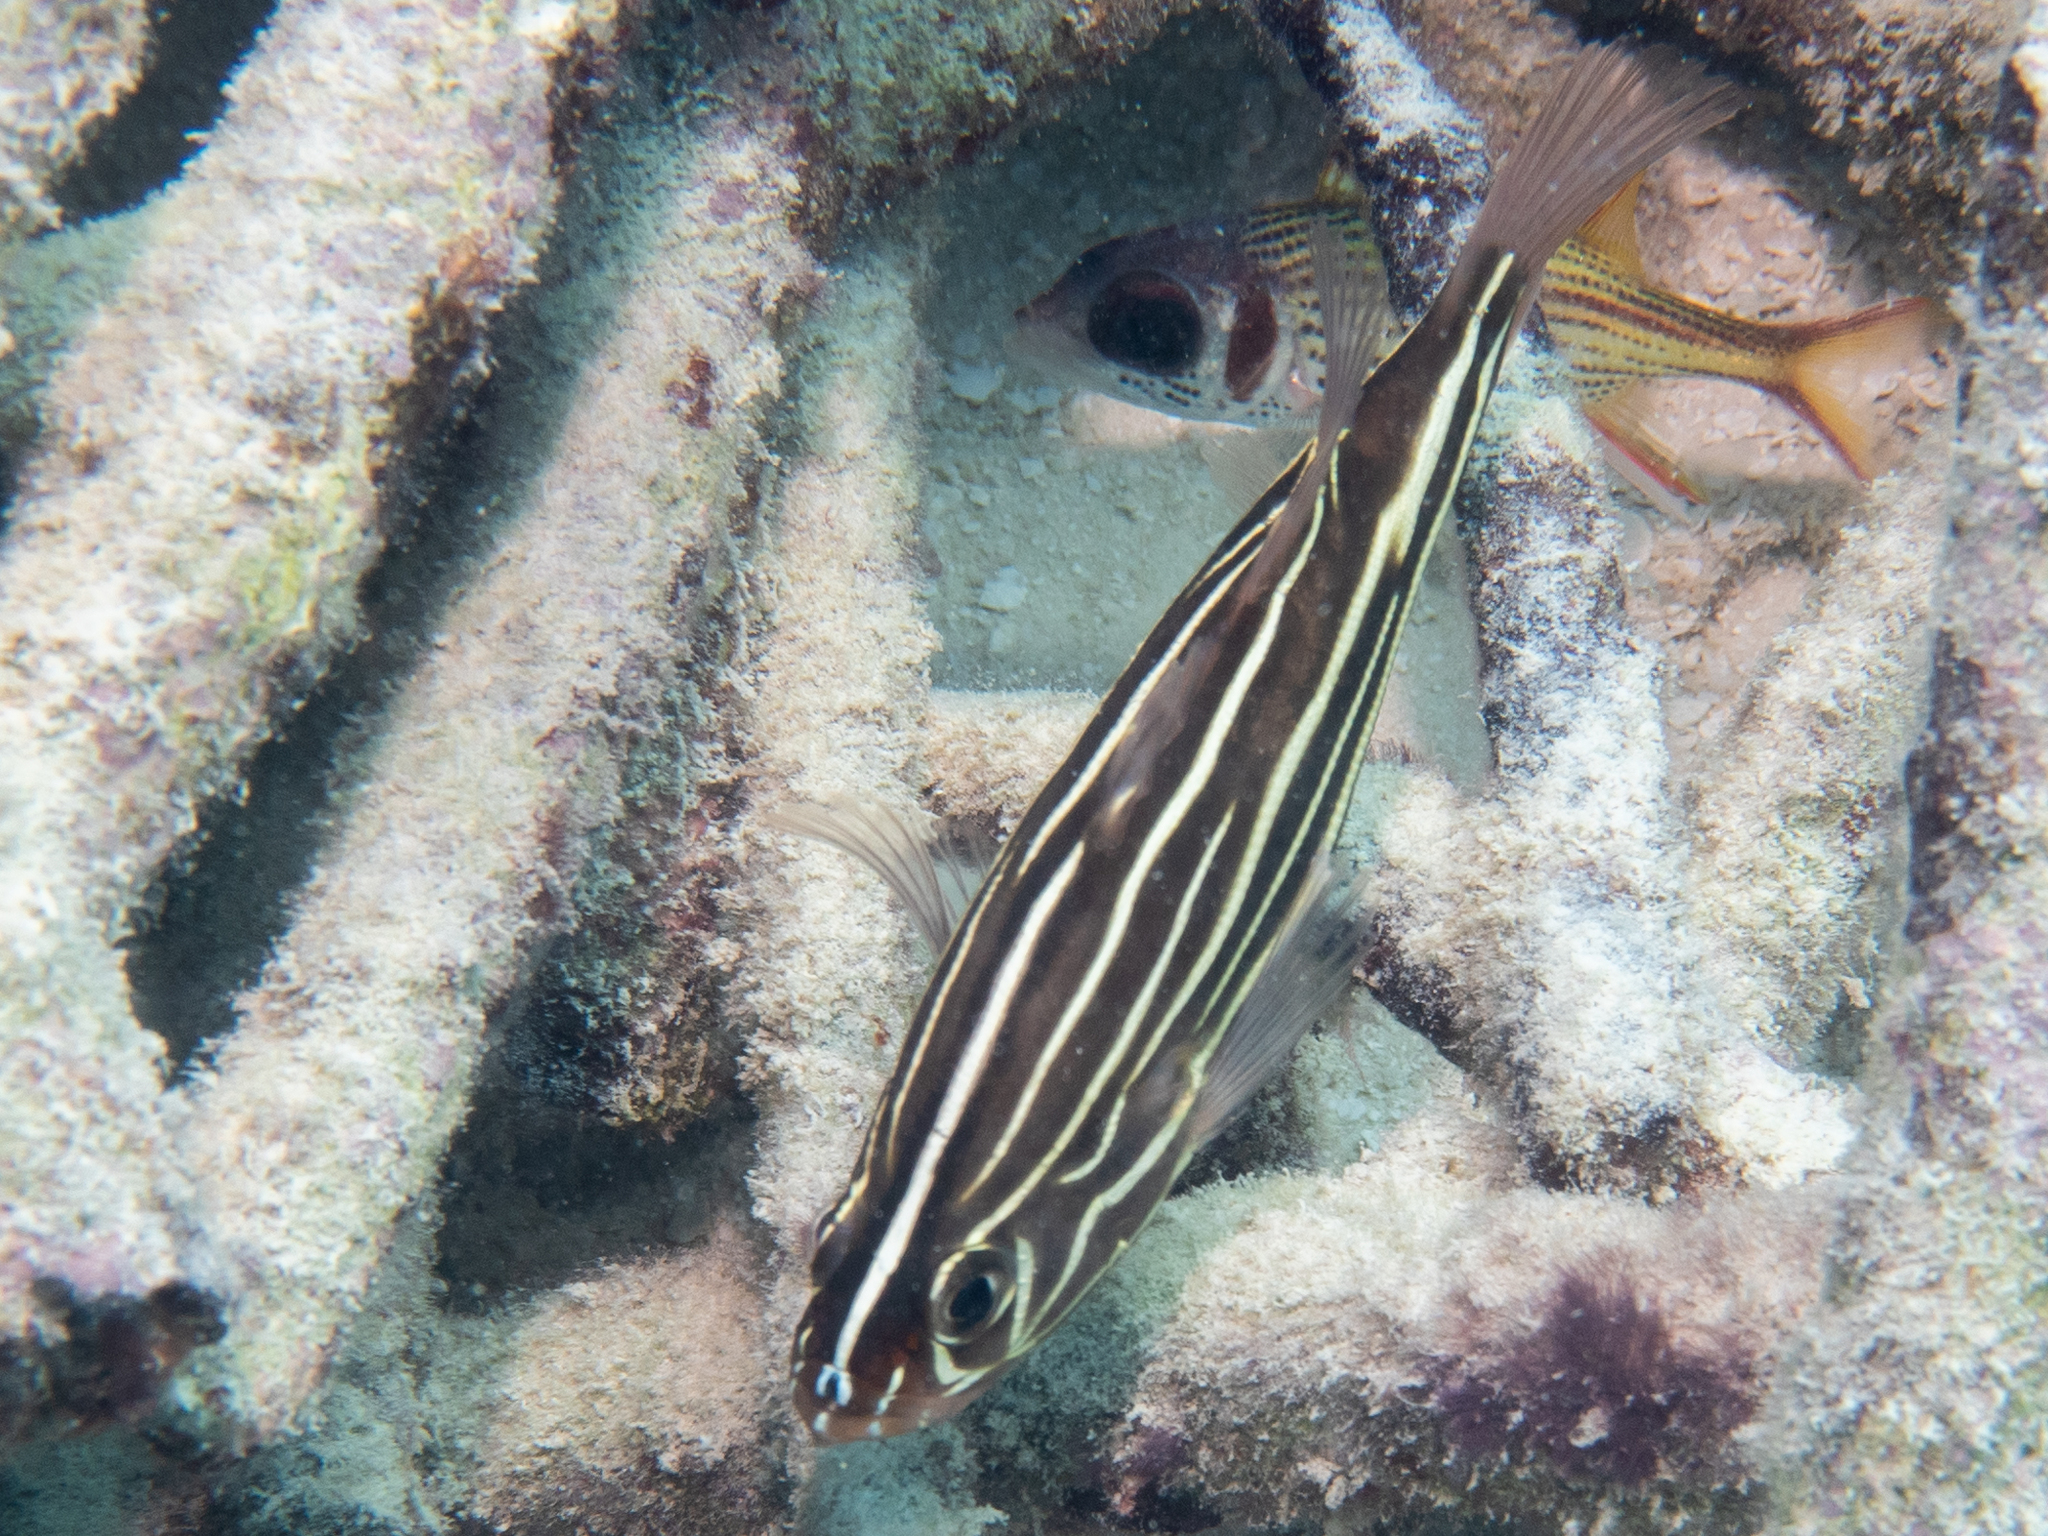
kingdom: Animalia
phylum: Chordata
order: Perciformes
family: Serranidae
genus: Grammistes
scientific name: Grammistes sexlineatus
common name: Sixline soapfish
